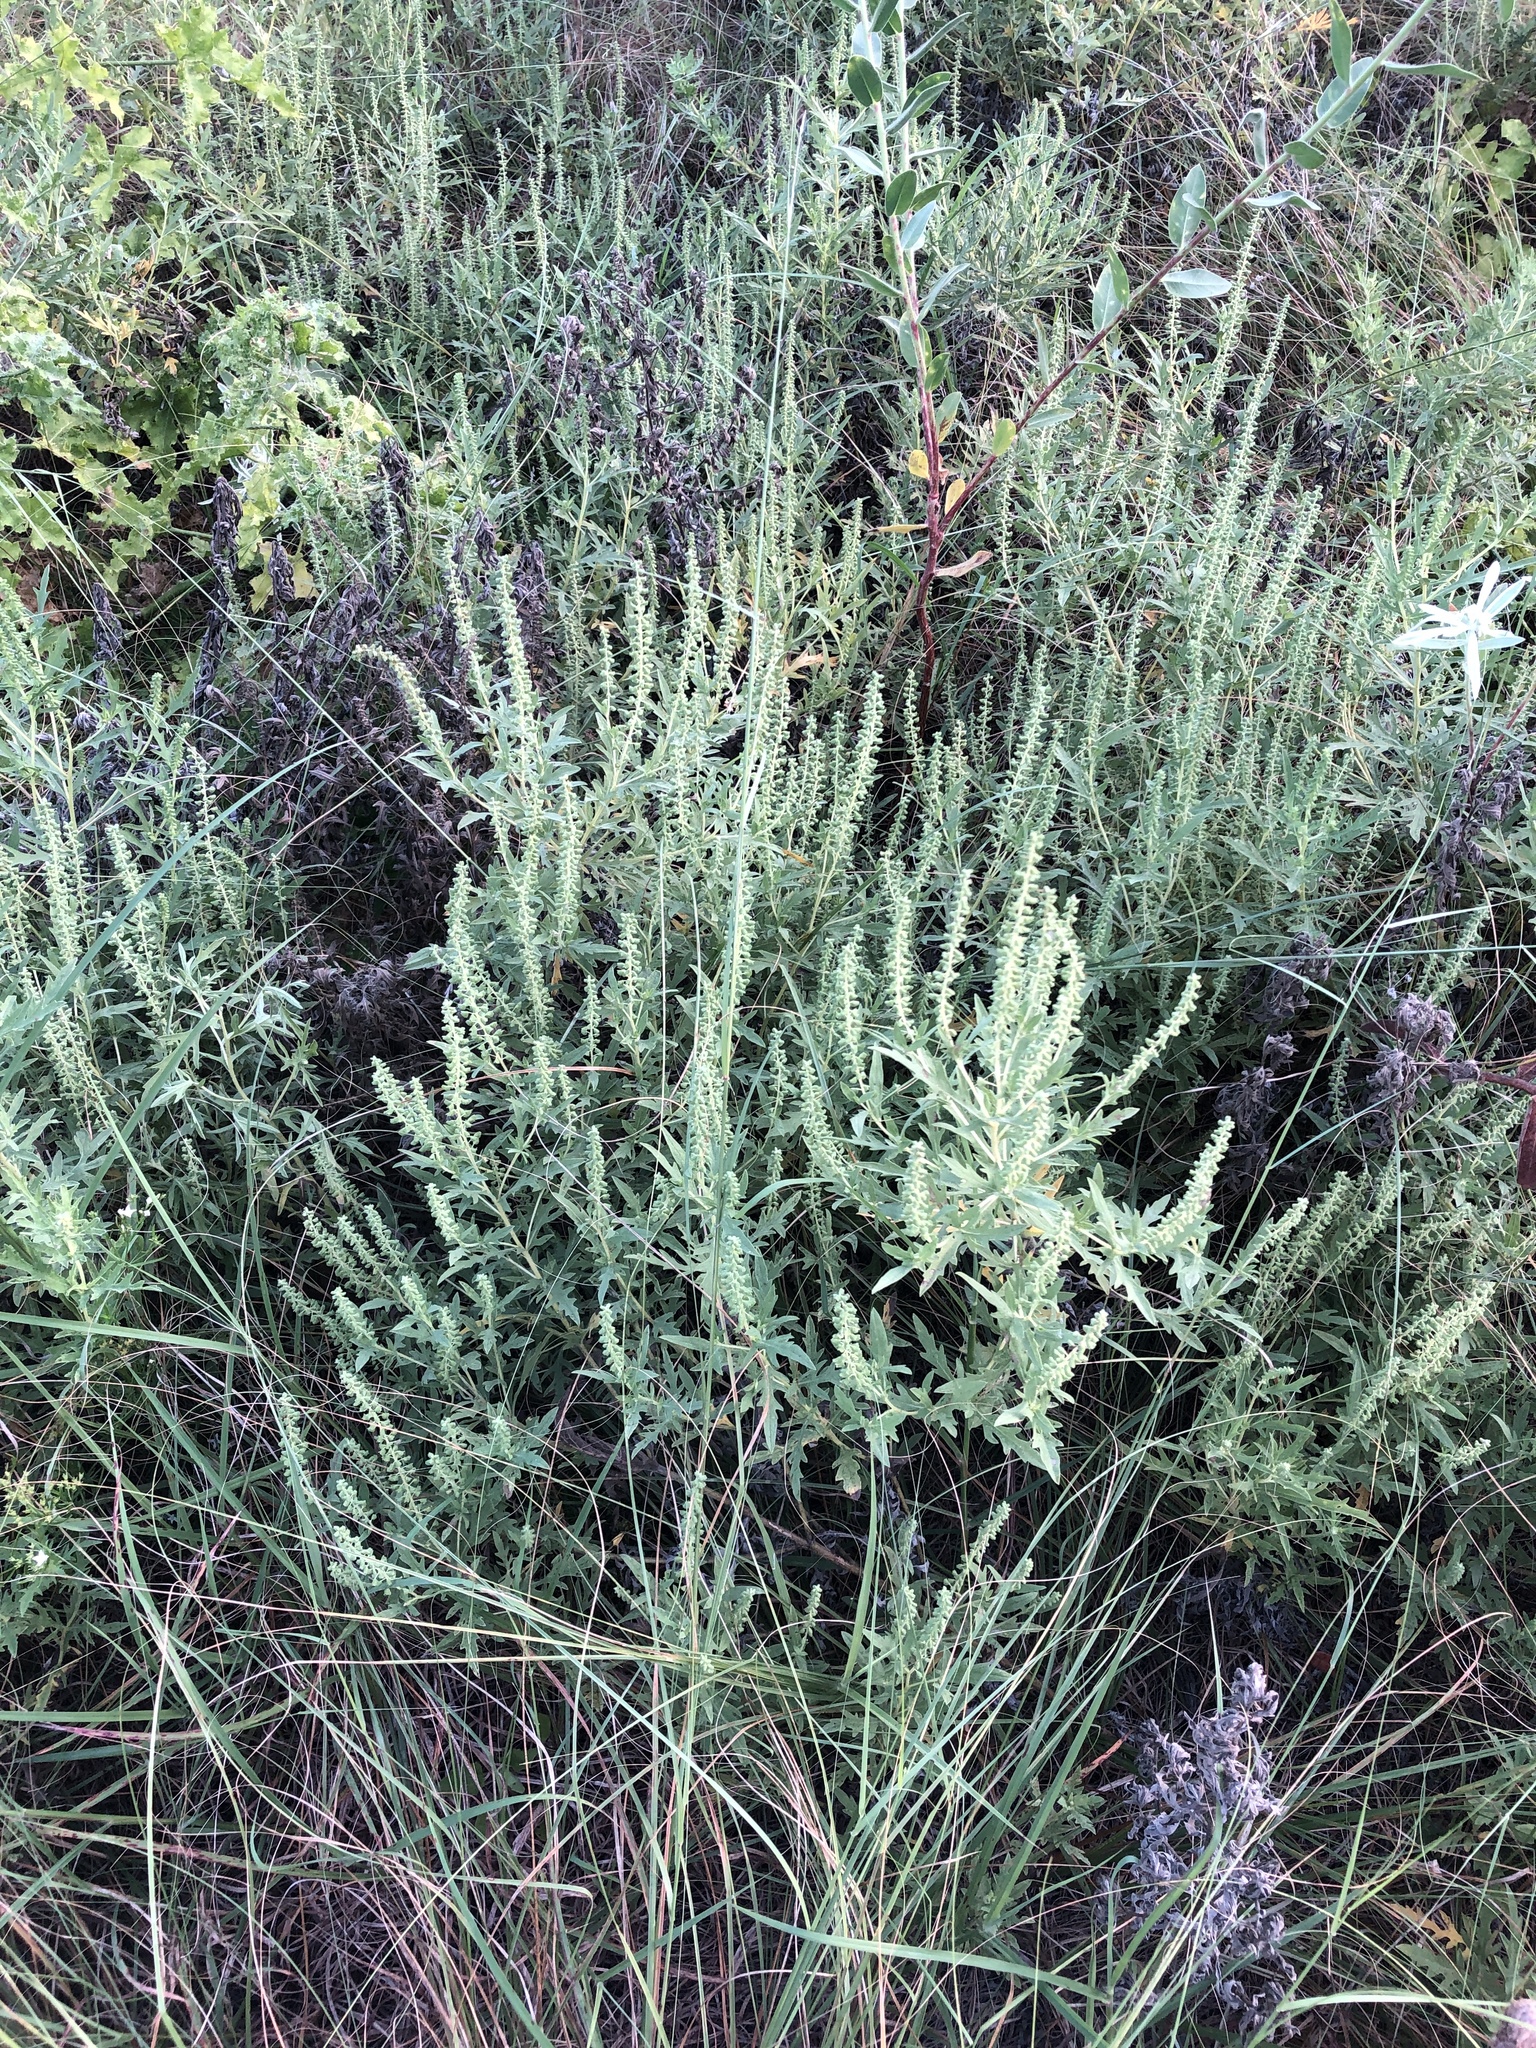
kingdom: Plantae
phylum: Tracheophyta
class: Magnoliopsida
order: Asterales
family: Asteraceae
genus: Ambrosia
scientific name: Ambrosia psilostachya
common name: Perennial ragweed
